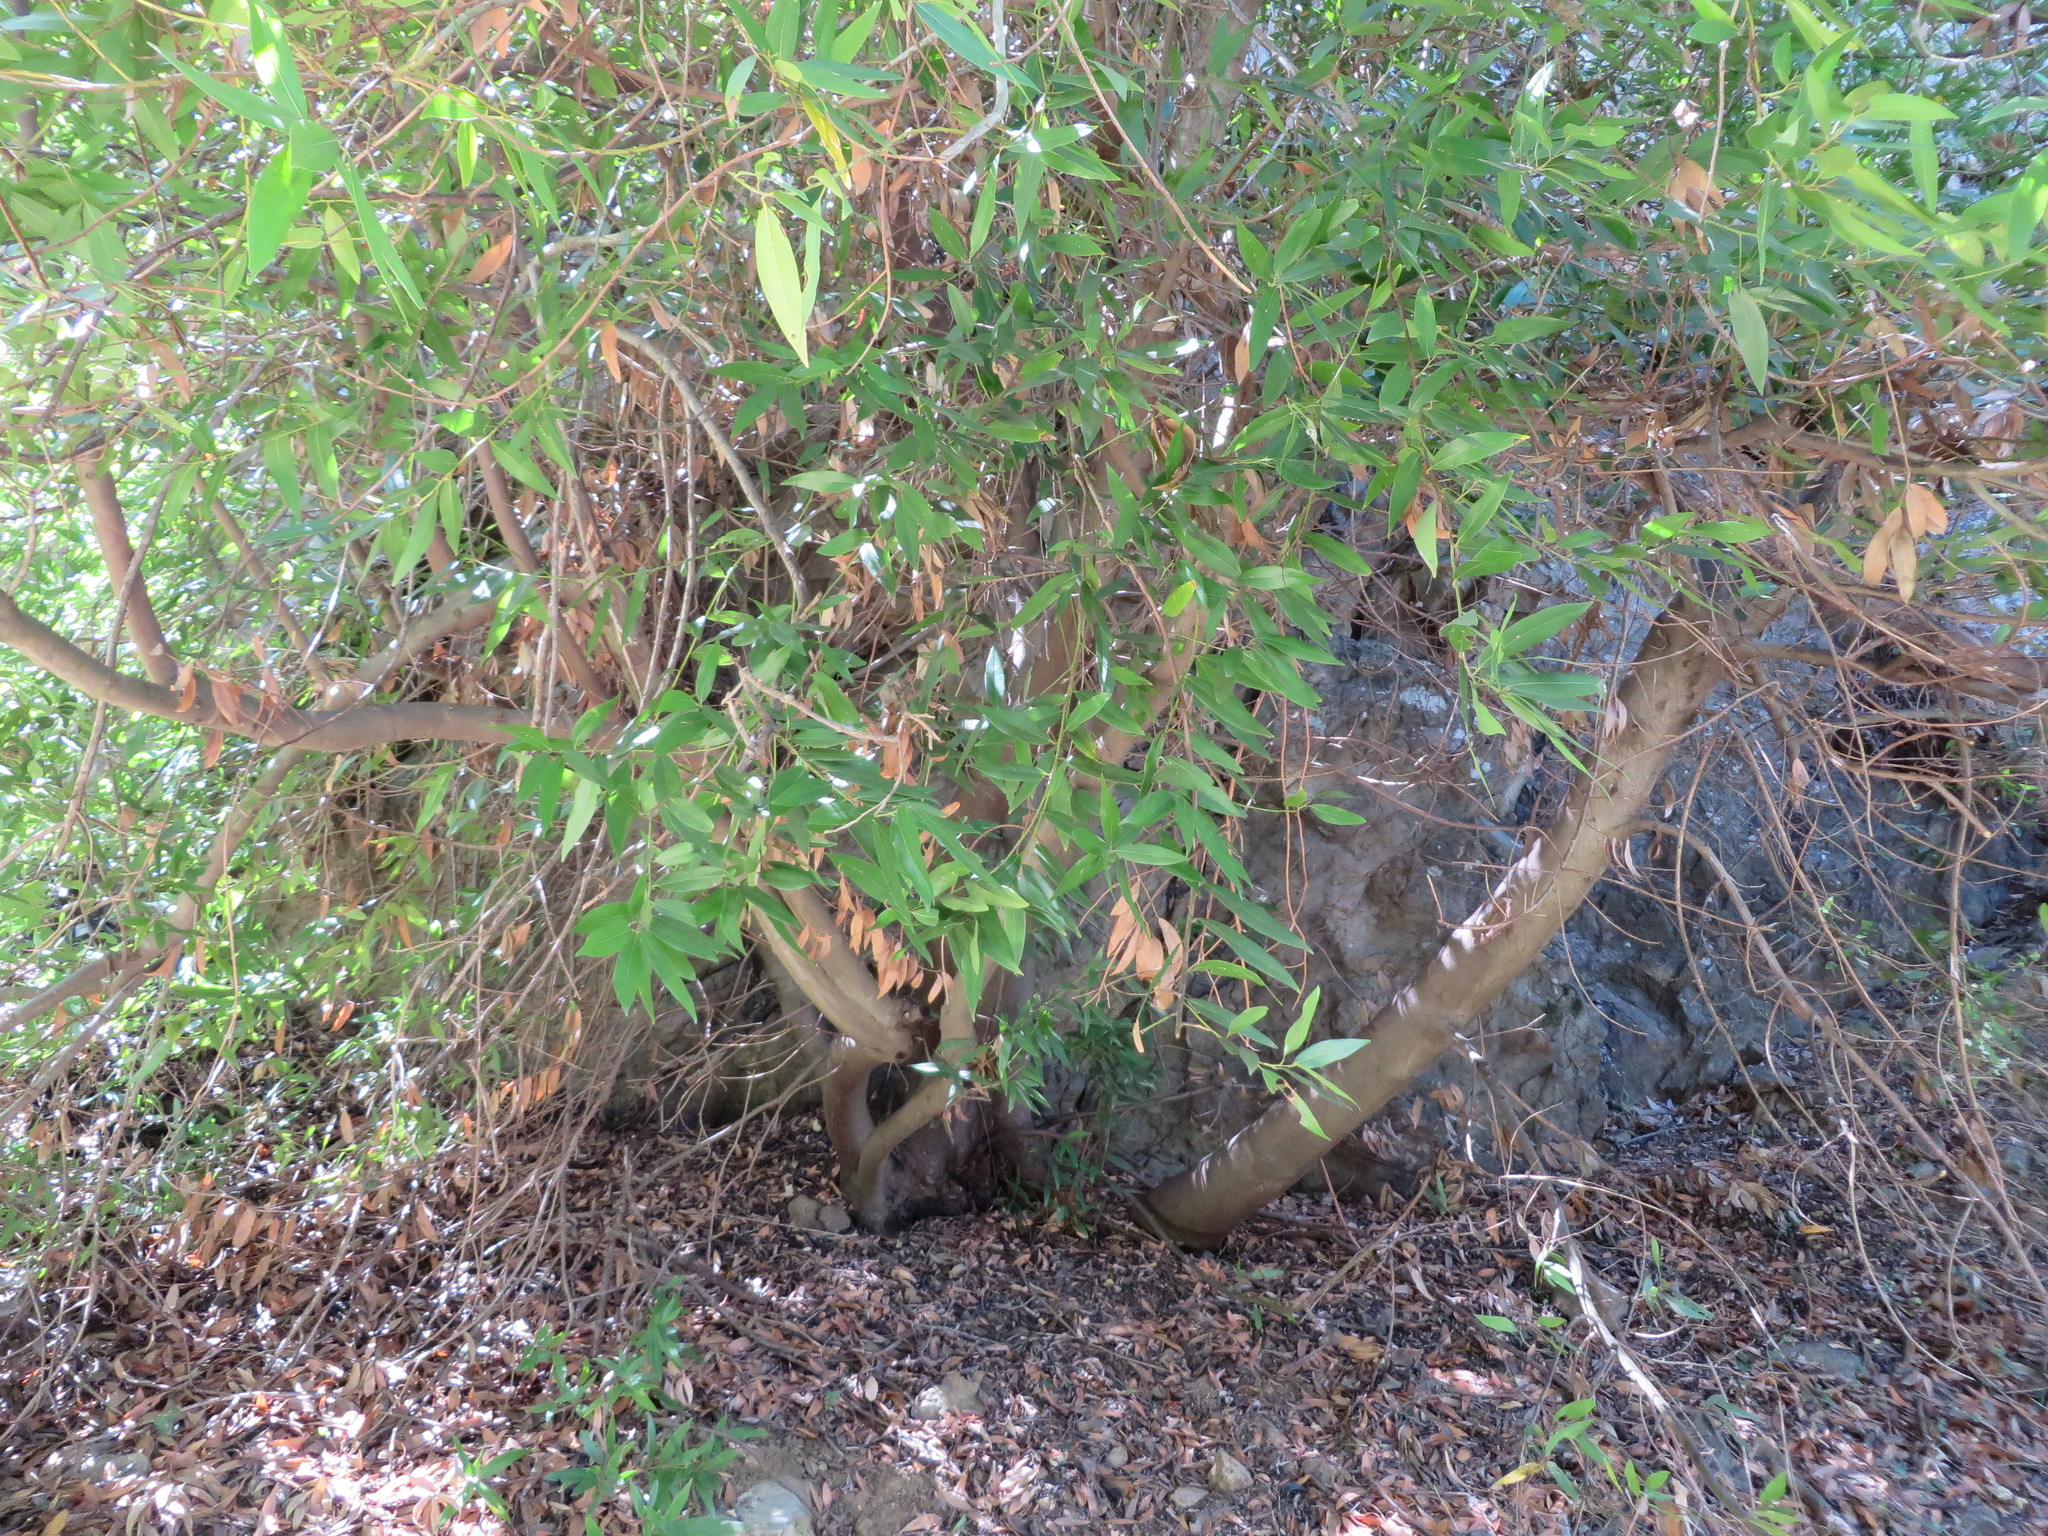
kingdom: Plantae
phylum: Tracheophyta
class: Magnoliopsida
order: Laurales
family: Lauraceae
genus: Umbellularia
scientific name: Umbellularia californica
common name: California bay
